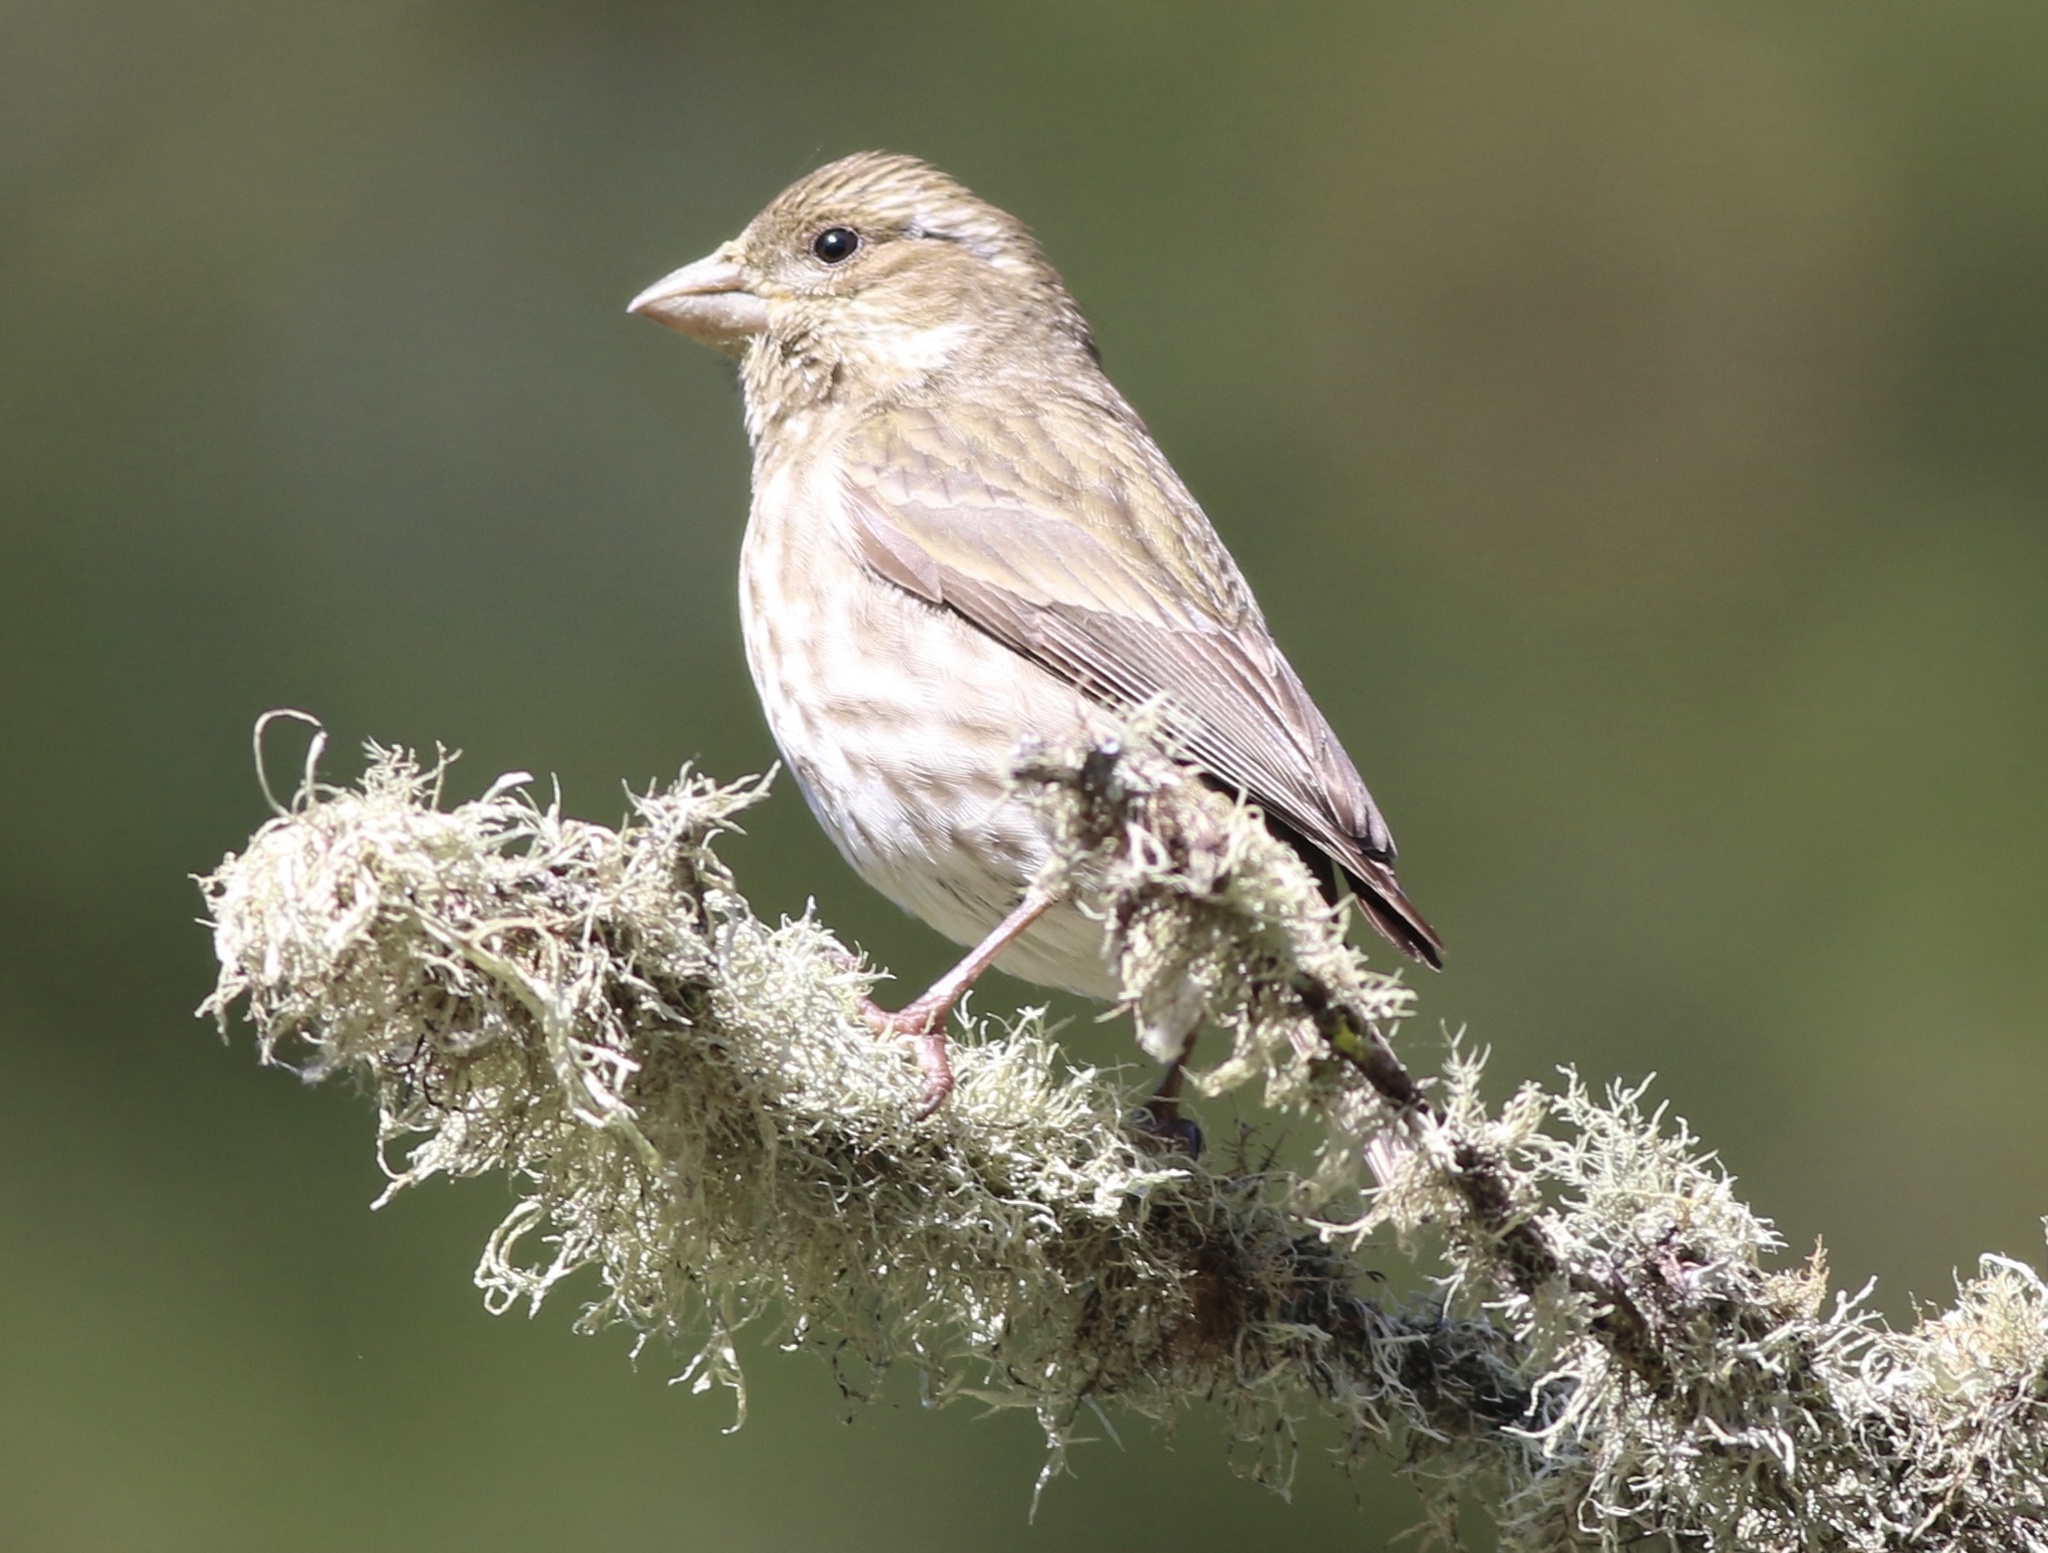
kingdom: Animalia
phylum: Chordata
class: Aves
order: Passeriformes
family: Fringillidae
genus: Haemorhous
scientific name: Haemorhous purpureus
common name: Purple finch
